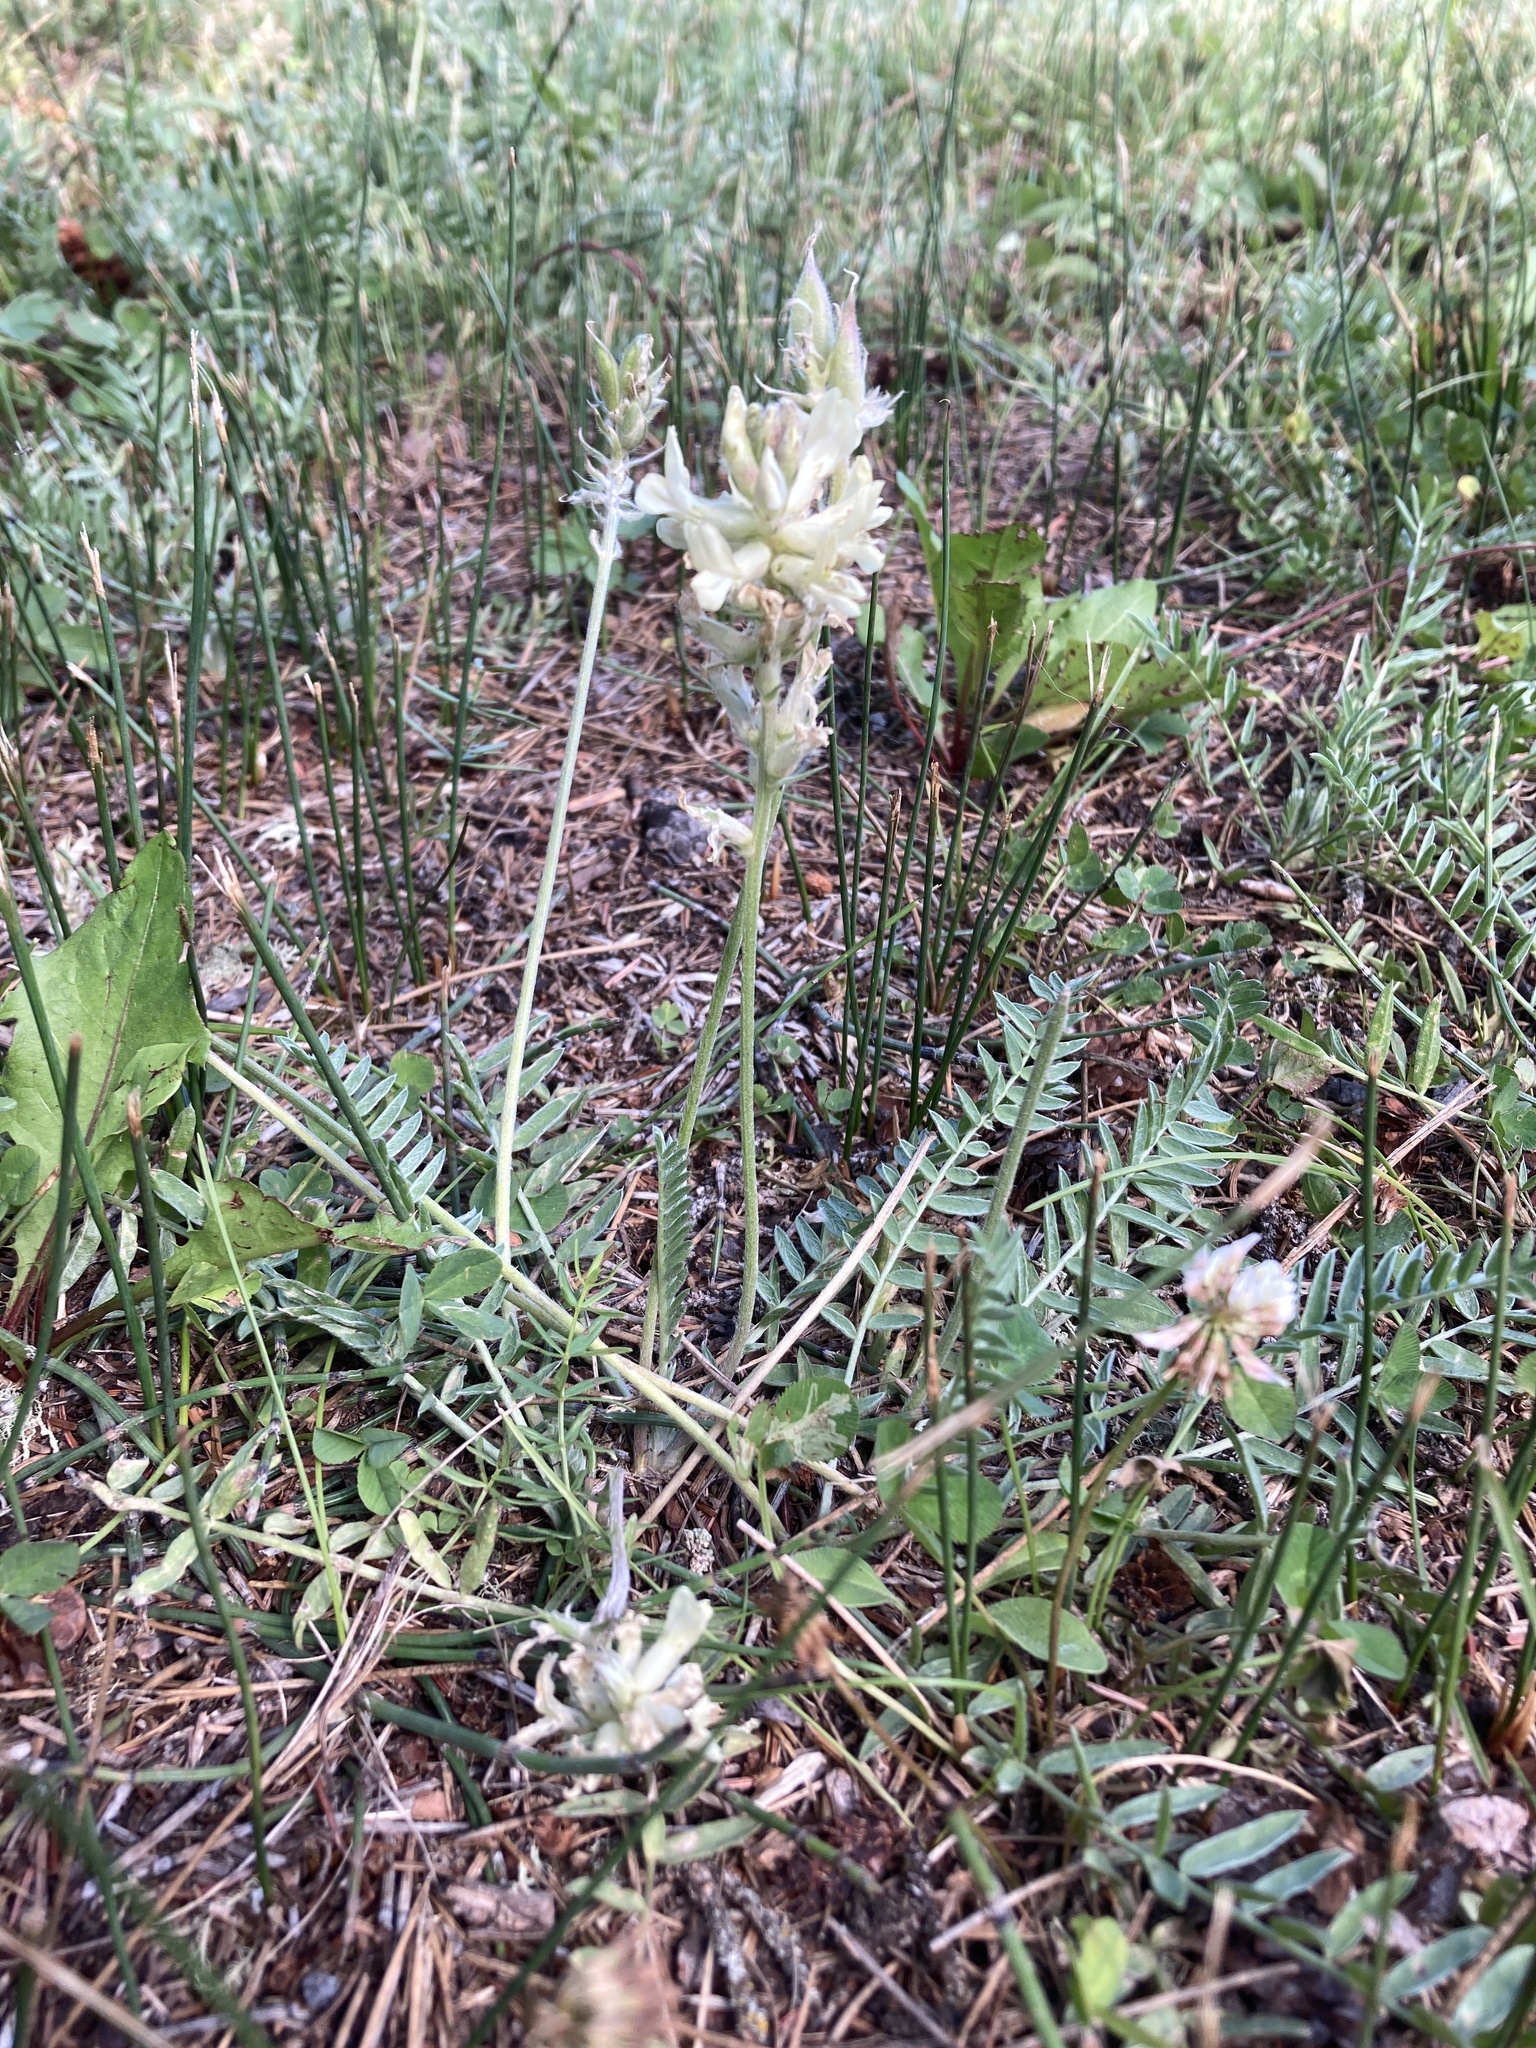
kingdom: Plantae
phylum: Tracheophyta
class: Magnoliopsida
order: Fabales
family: Fabaceae
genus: Oxytropis
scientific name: Oxytropis campestris
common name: Field locoweed
